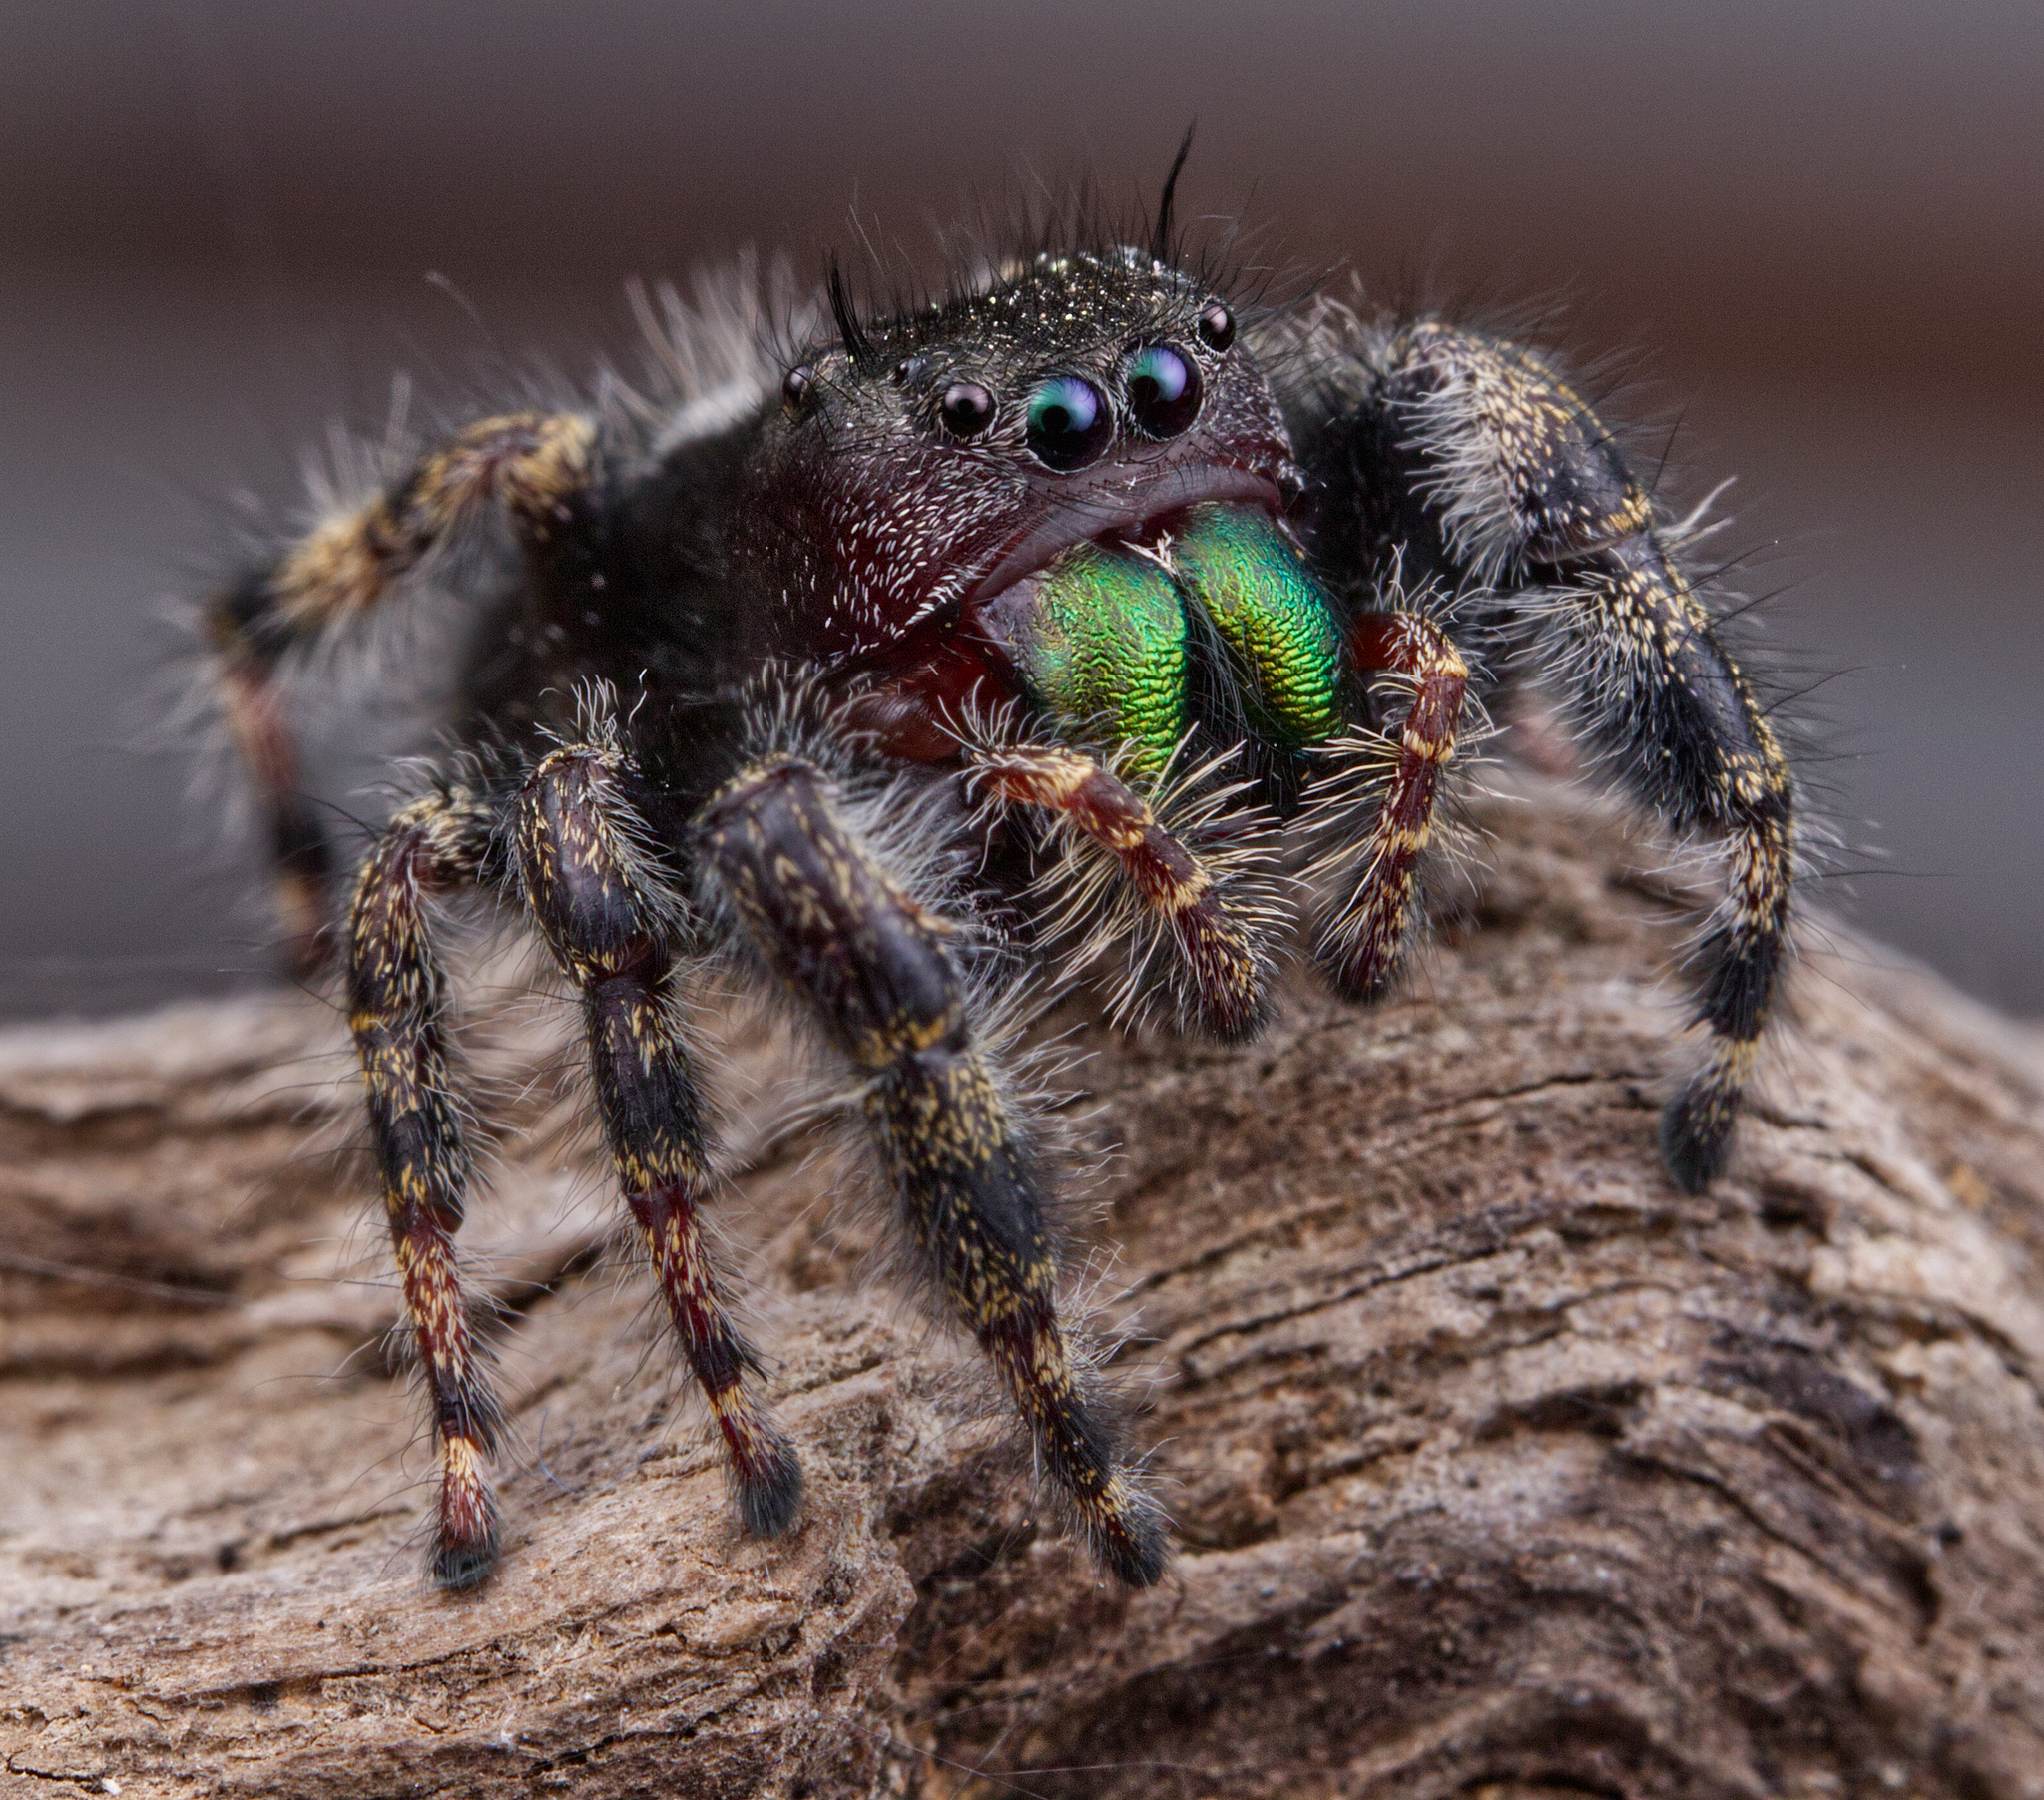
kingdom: Animalia
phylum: Arthropoda
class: Arachnida
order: Araneae
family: Salticidae
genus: Phidippus
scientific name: Phidippus audax
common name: Bold jumper
